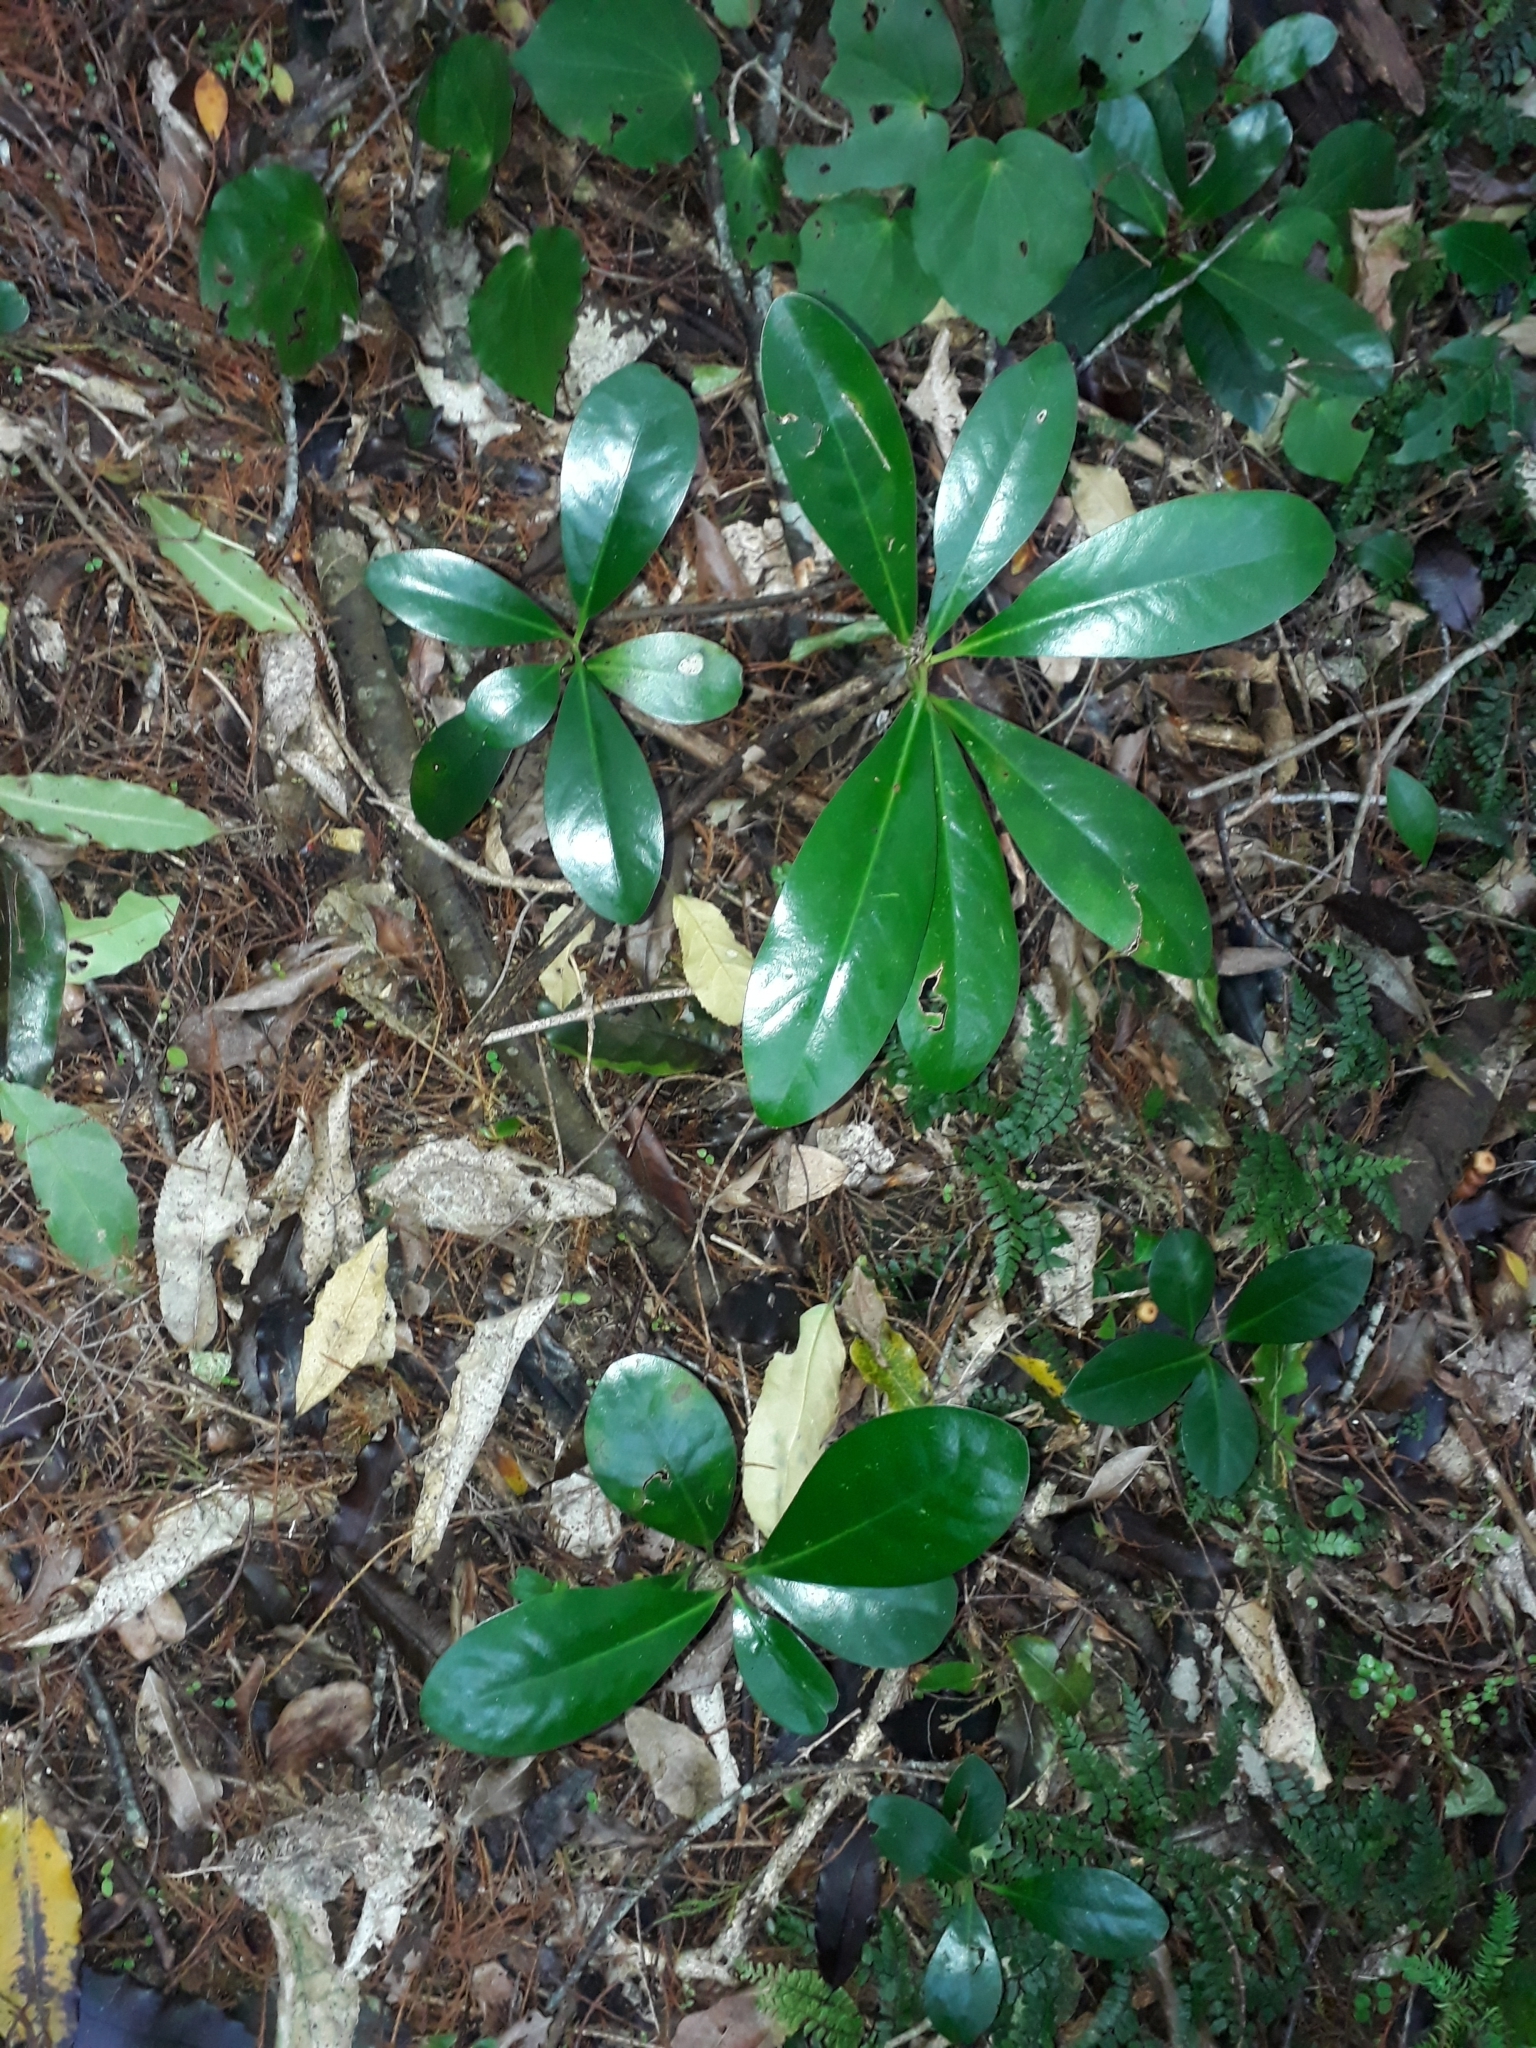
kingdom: Plantae
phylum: Tracheophyta
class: Magnoliopsida
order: Cucurbitales
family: Corynocarpaceae
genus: Corynocarpus
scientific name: Corynocarpus laevigatus
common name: New zealand laurel
